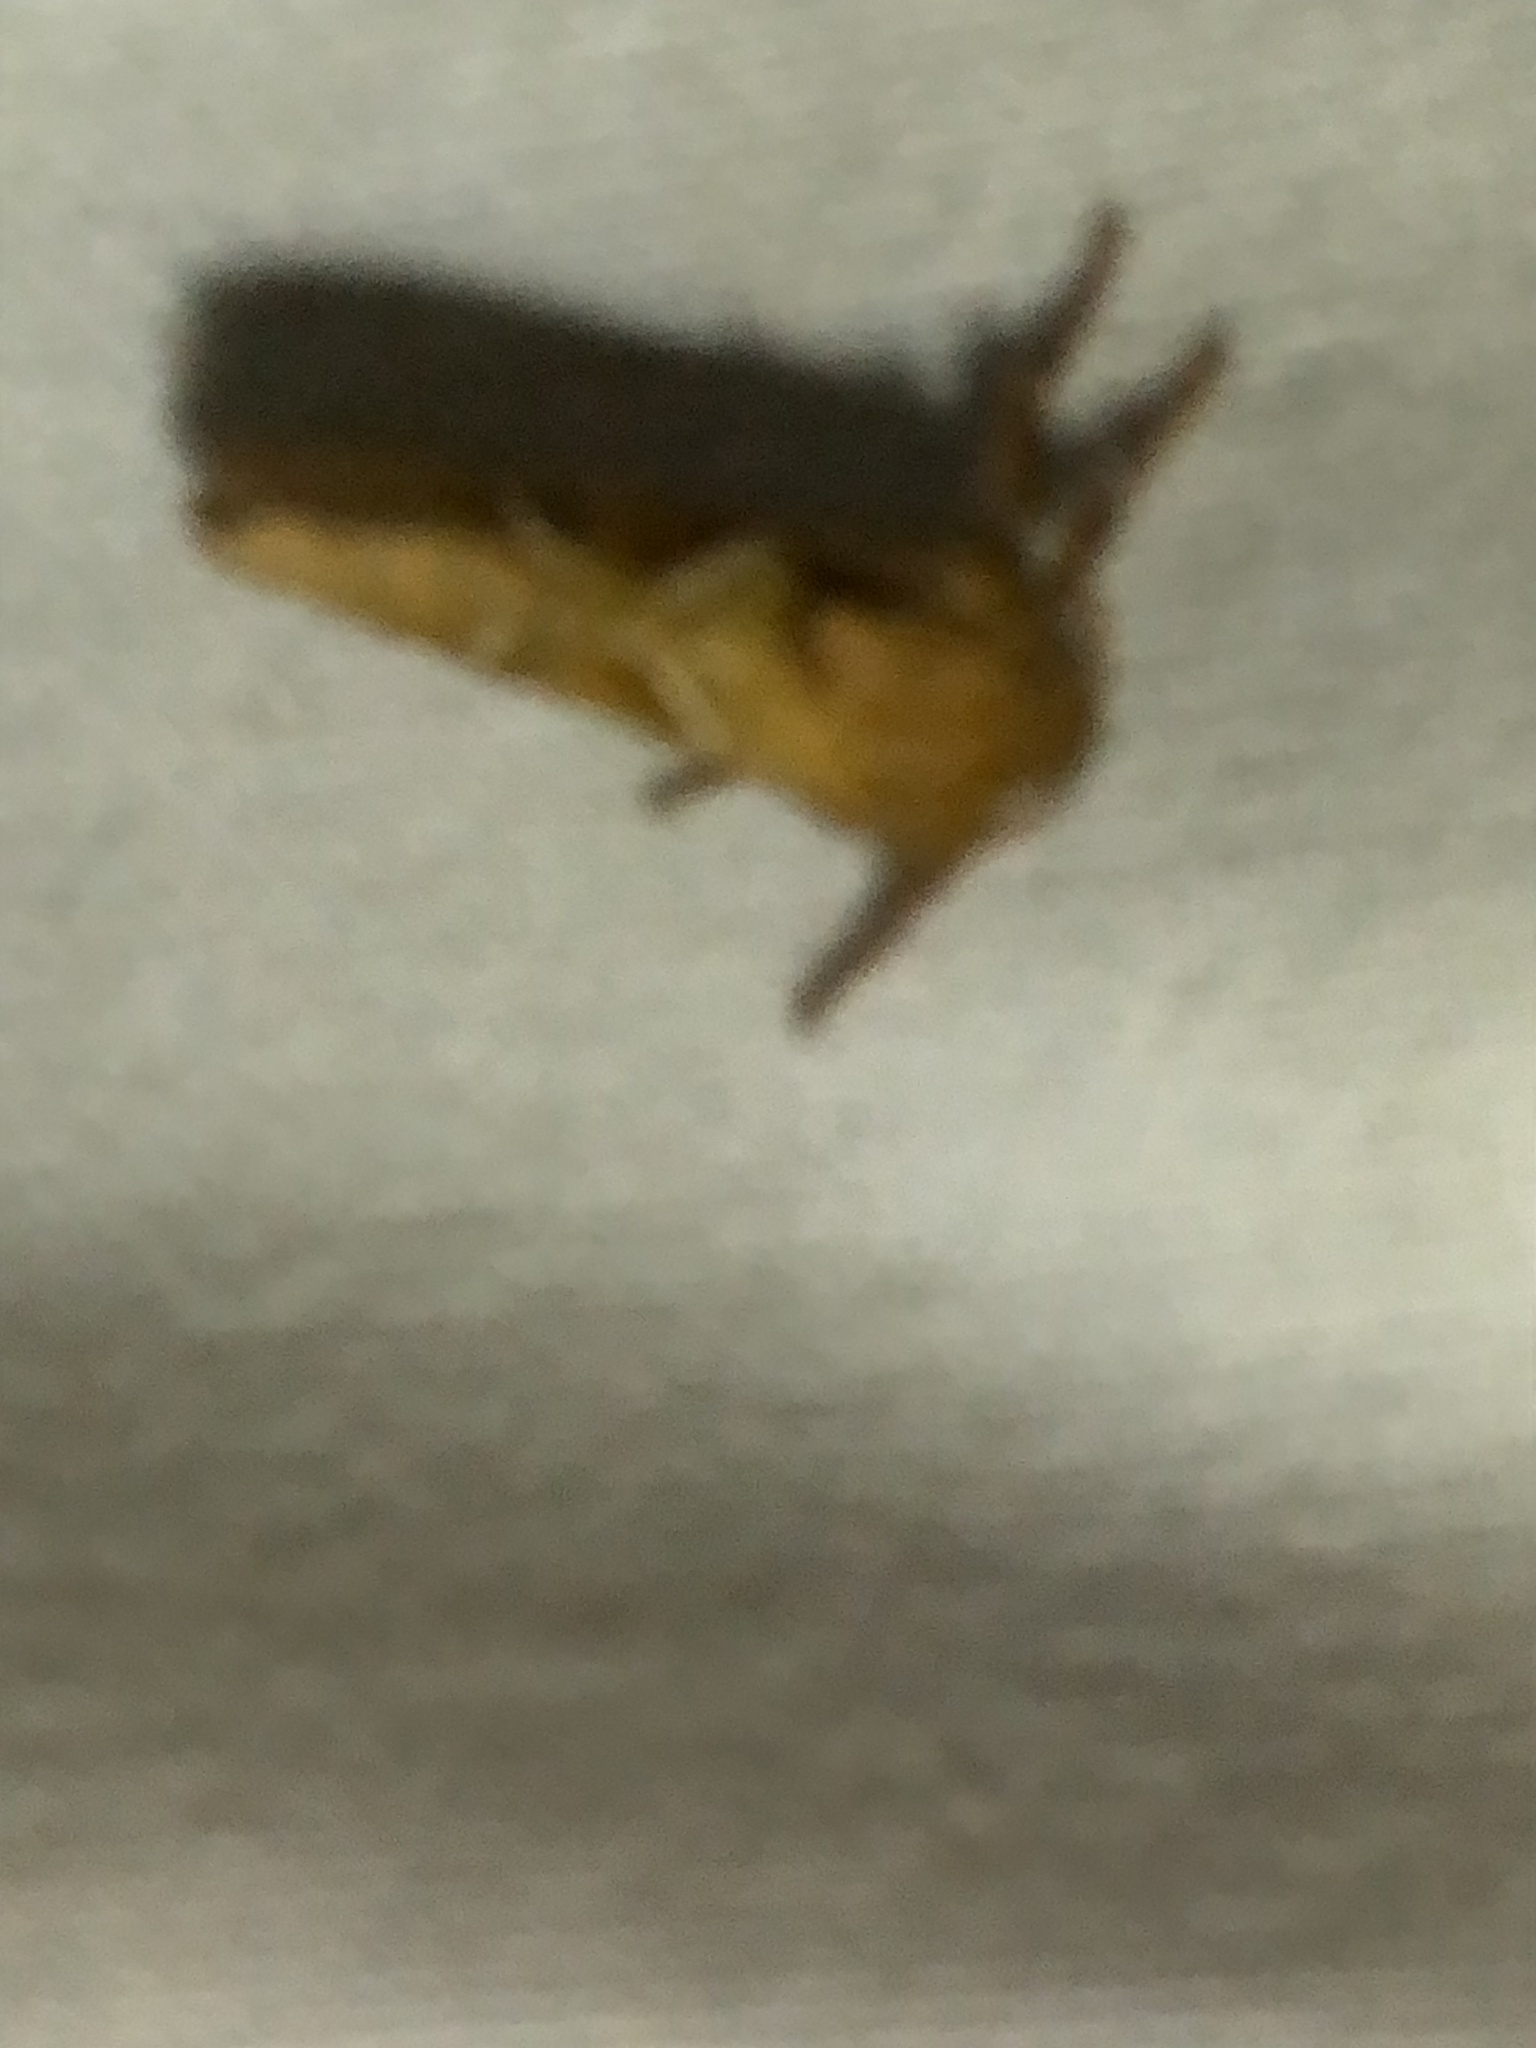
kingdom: Animalia
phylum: Arthropoda
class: Insecta
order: Lepidoptera
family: Hepialidae
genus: Triodia
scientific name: Triodia sylvina
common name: Orange swift
